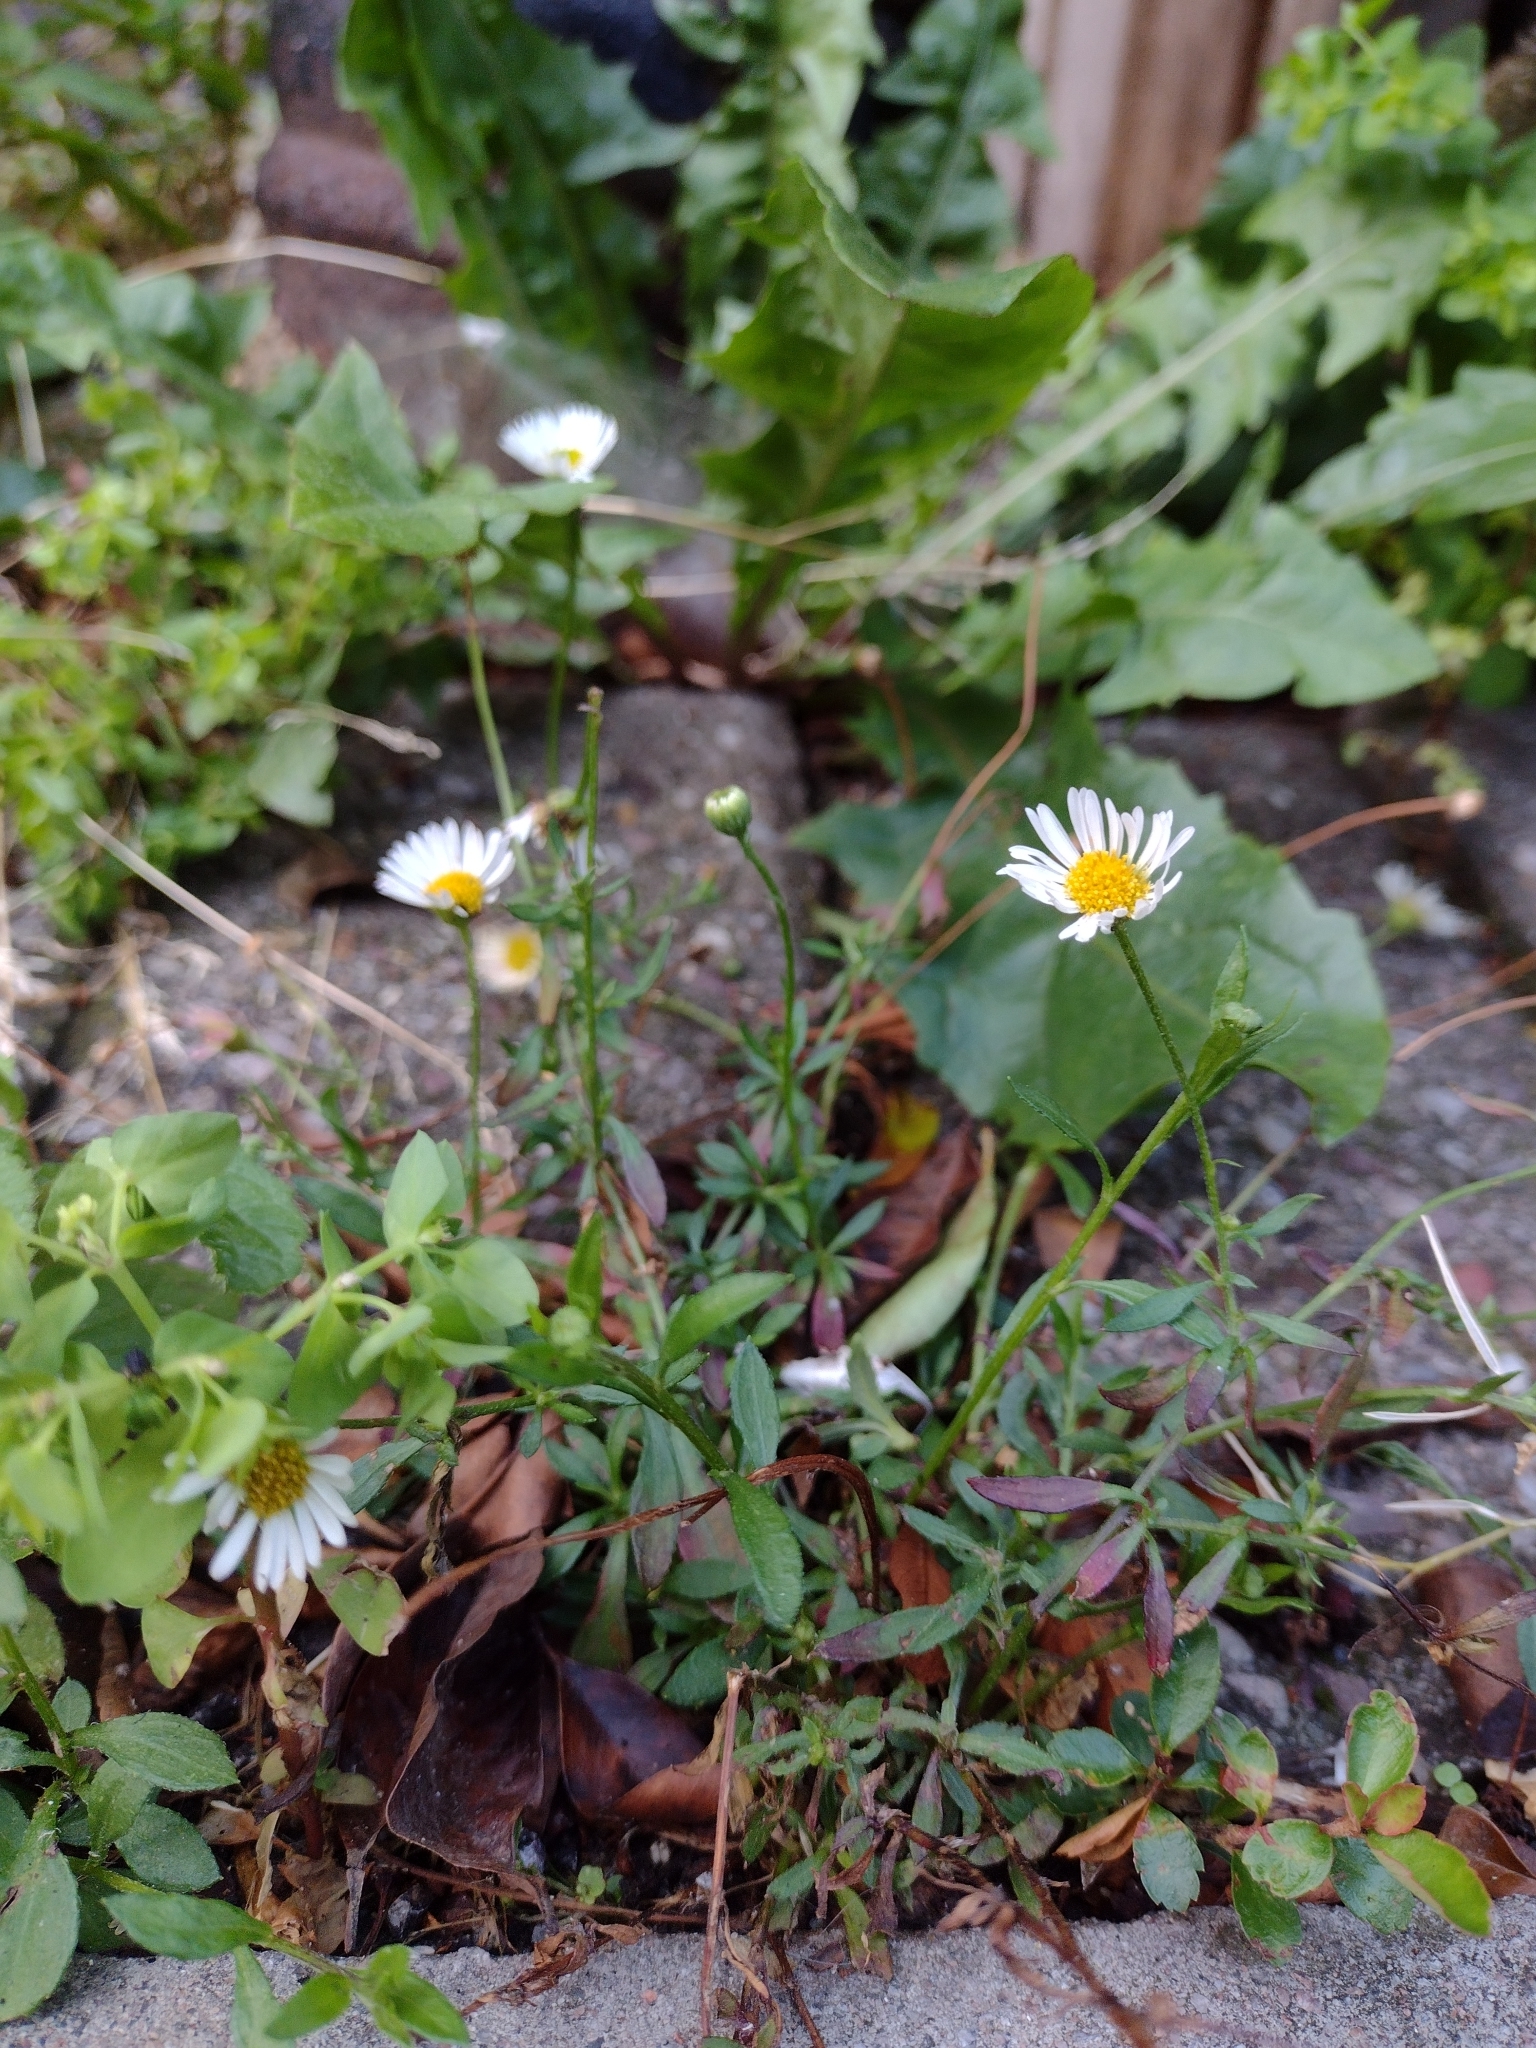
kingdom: Plantae
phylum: Tracheophyta
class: Magnoliopsida
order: Asterales
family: Asteraceae
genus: Erigeron
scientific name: Erigeron karvinskianus
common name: Mexican fleabane
